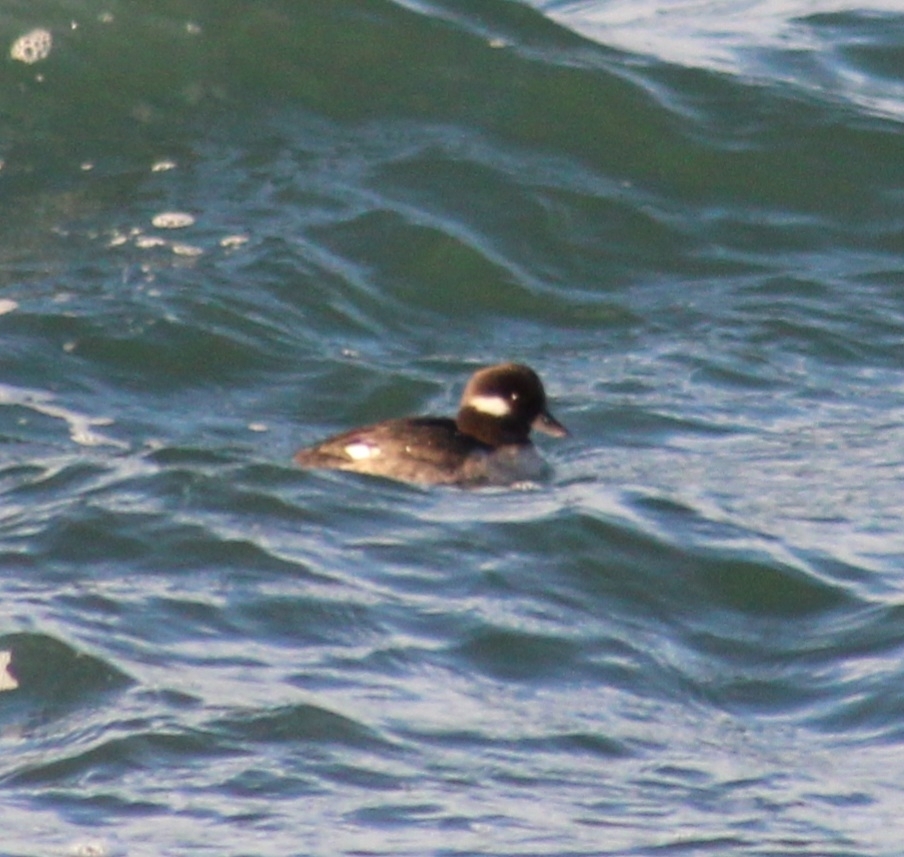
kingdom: Animalia
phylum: Chordata
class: Aves
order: Anseriformes
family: Anatidae
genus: Bucephala
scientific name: Bucephala albeola
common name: Bufflehead
